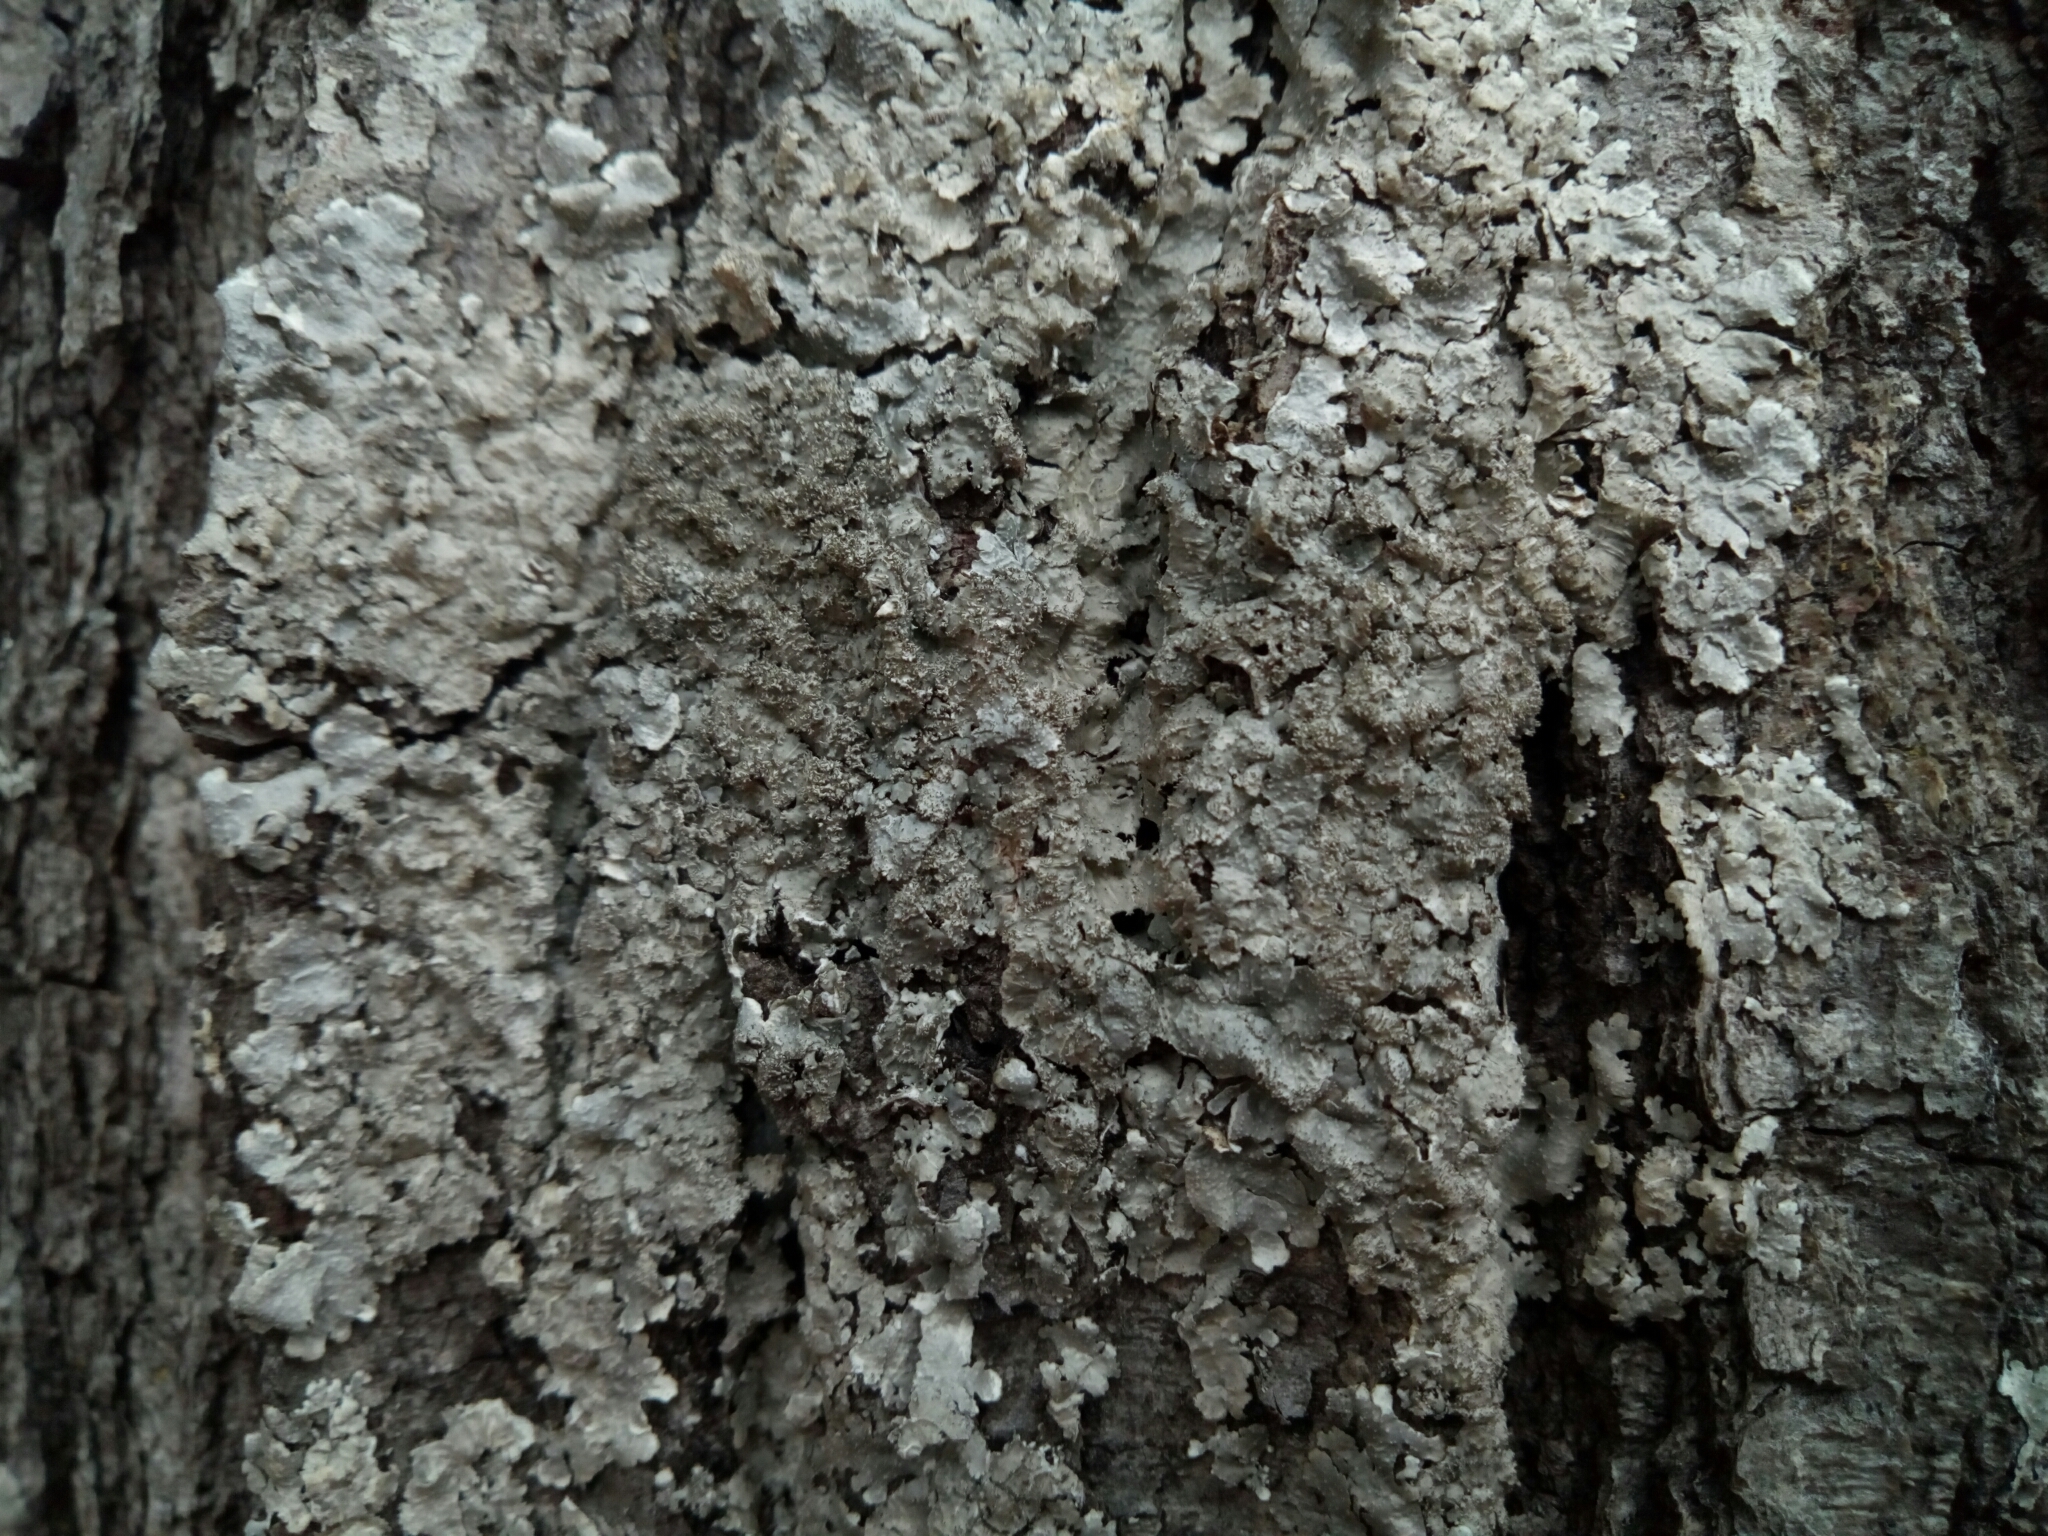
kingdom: Fungi
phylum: Ascomycota
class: Lecanoromycetes
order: Lecanorales
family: Parmeliaceae
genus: Punctelia
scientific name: Punctelia rudecta
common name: Rough speckled shield lichen
